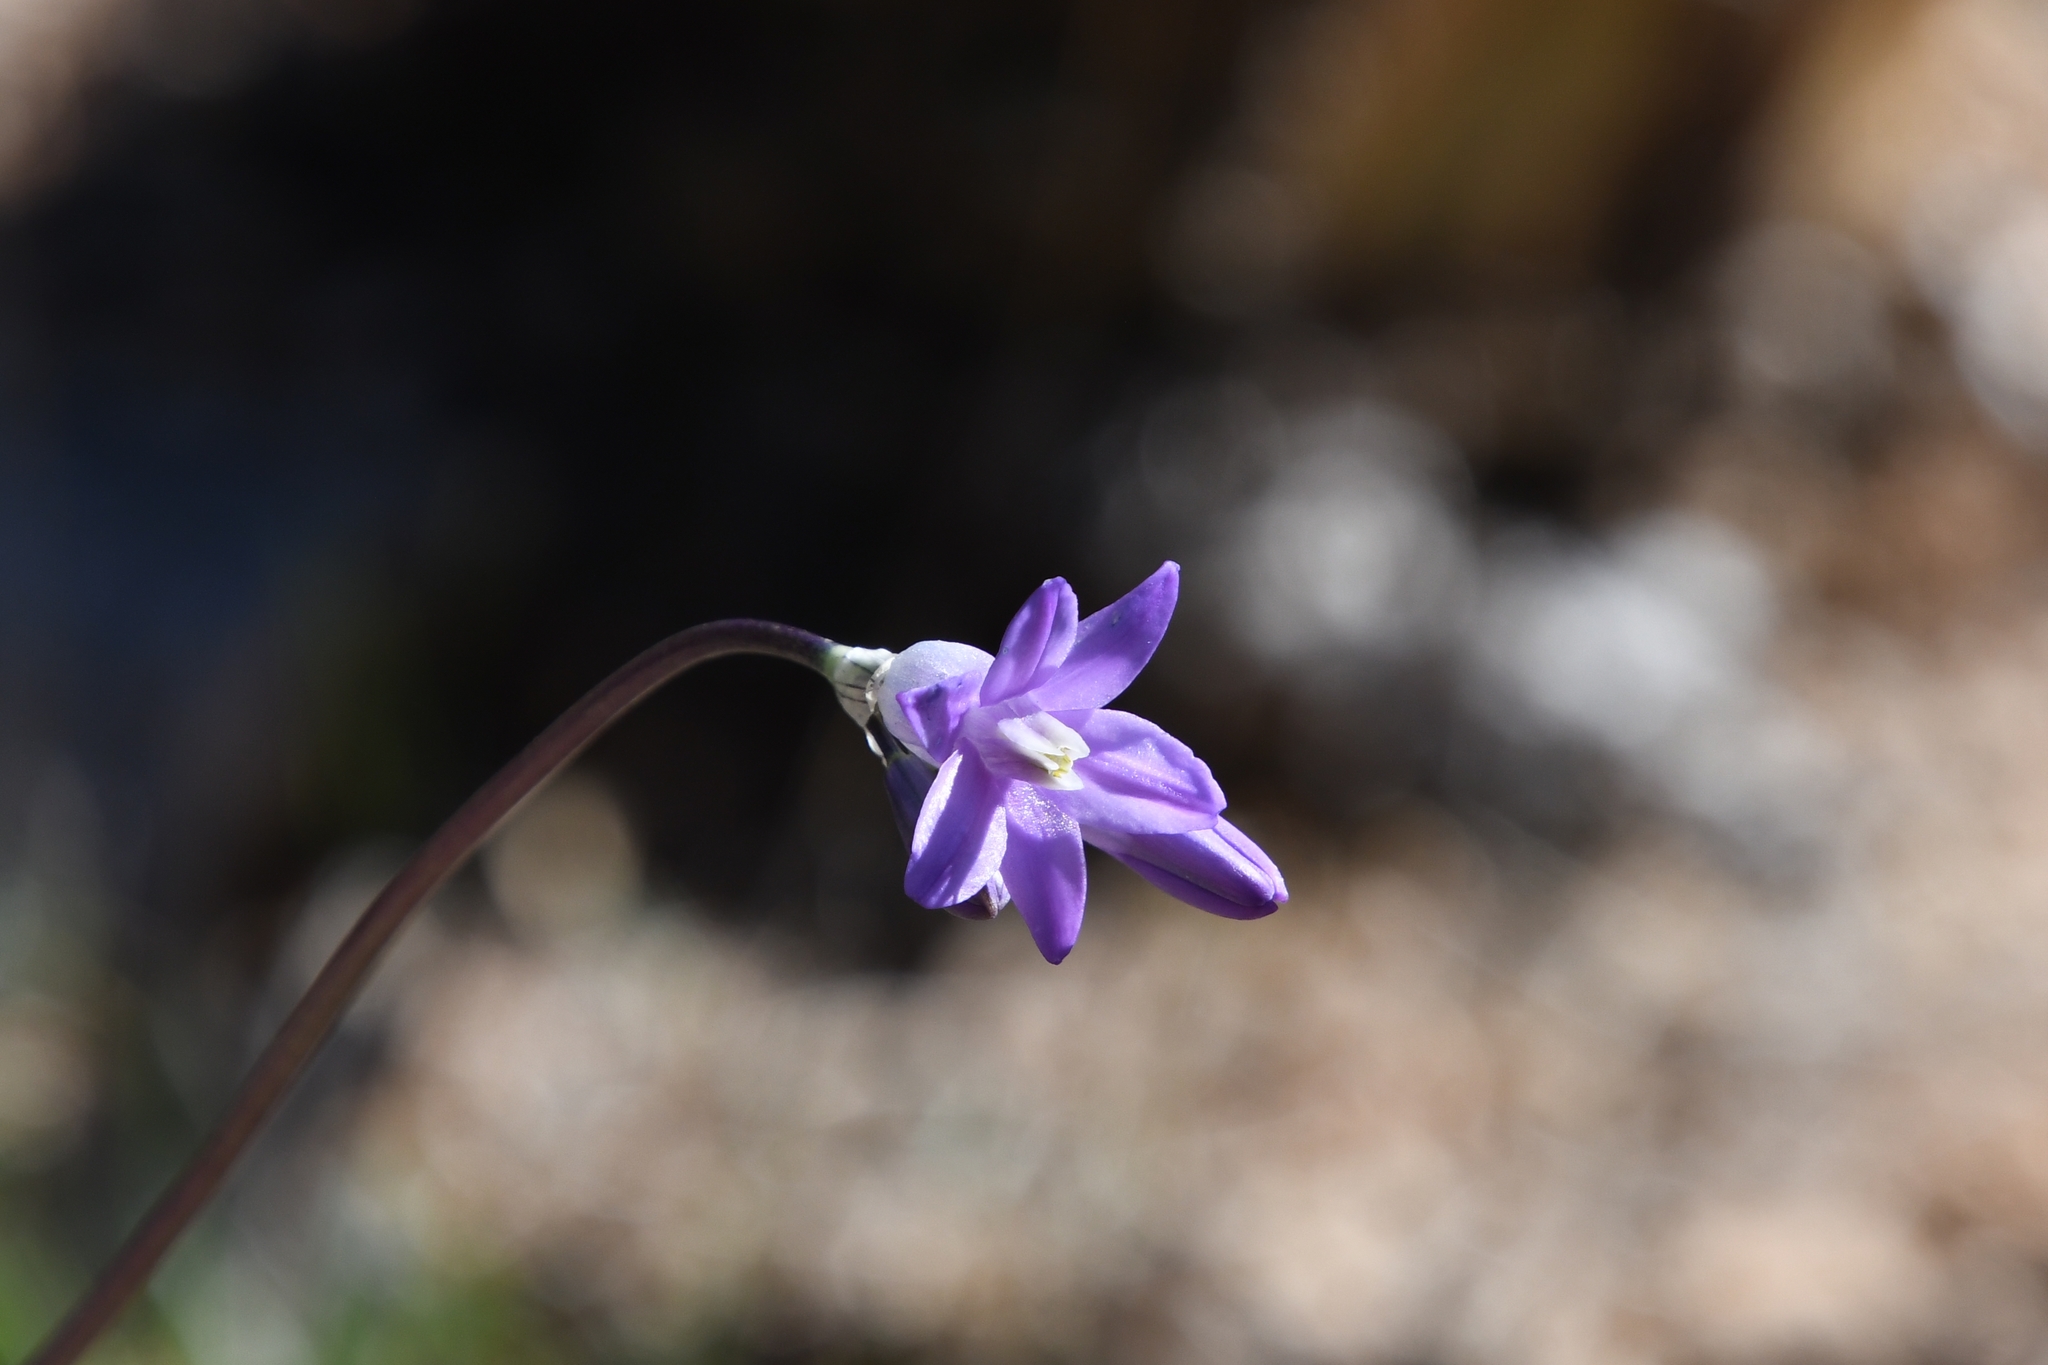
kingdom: Plantae
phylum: Tracheophyta
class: Liliopsida
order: Asparagales
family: Asparagaceae
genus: Dipterostemon
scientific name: Dipterostemon capitatus
